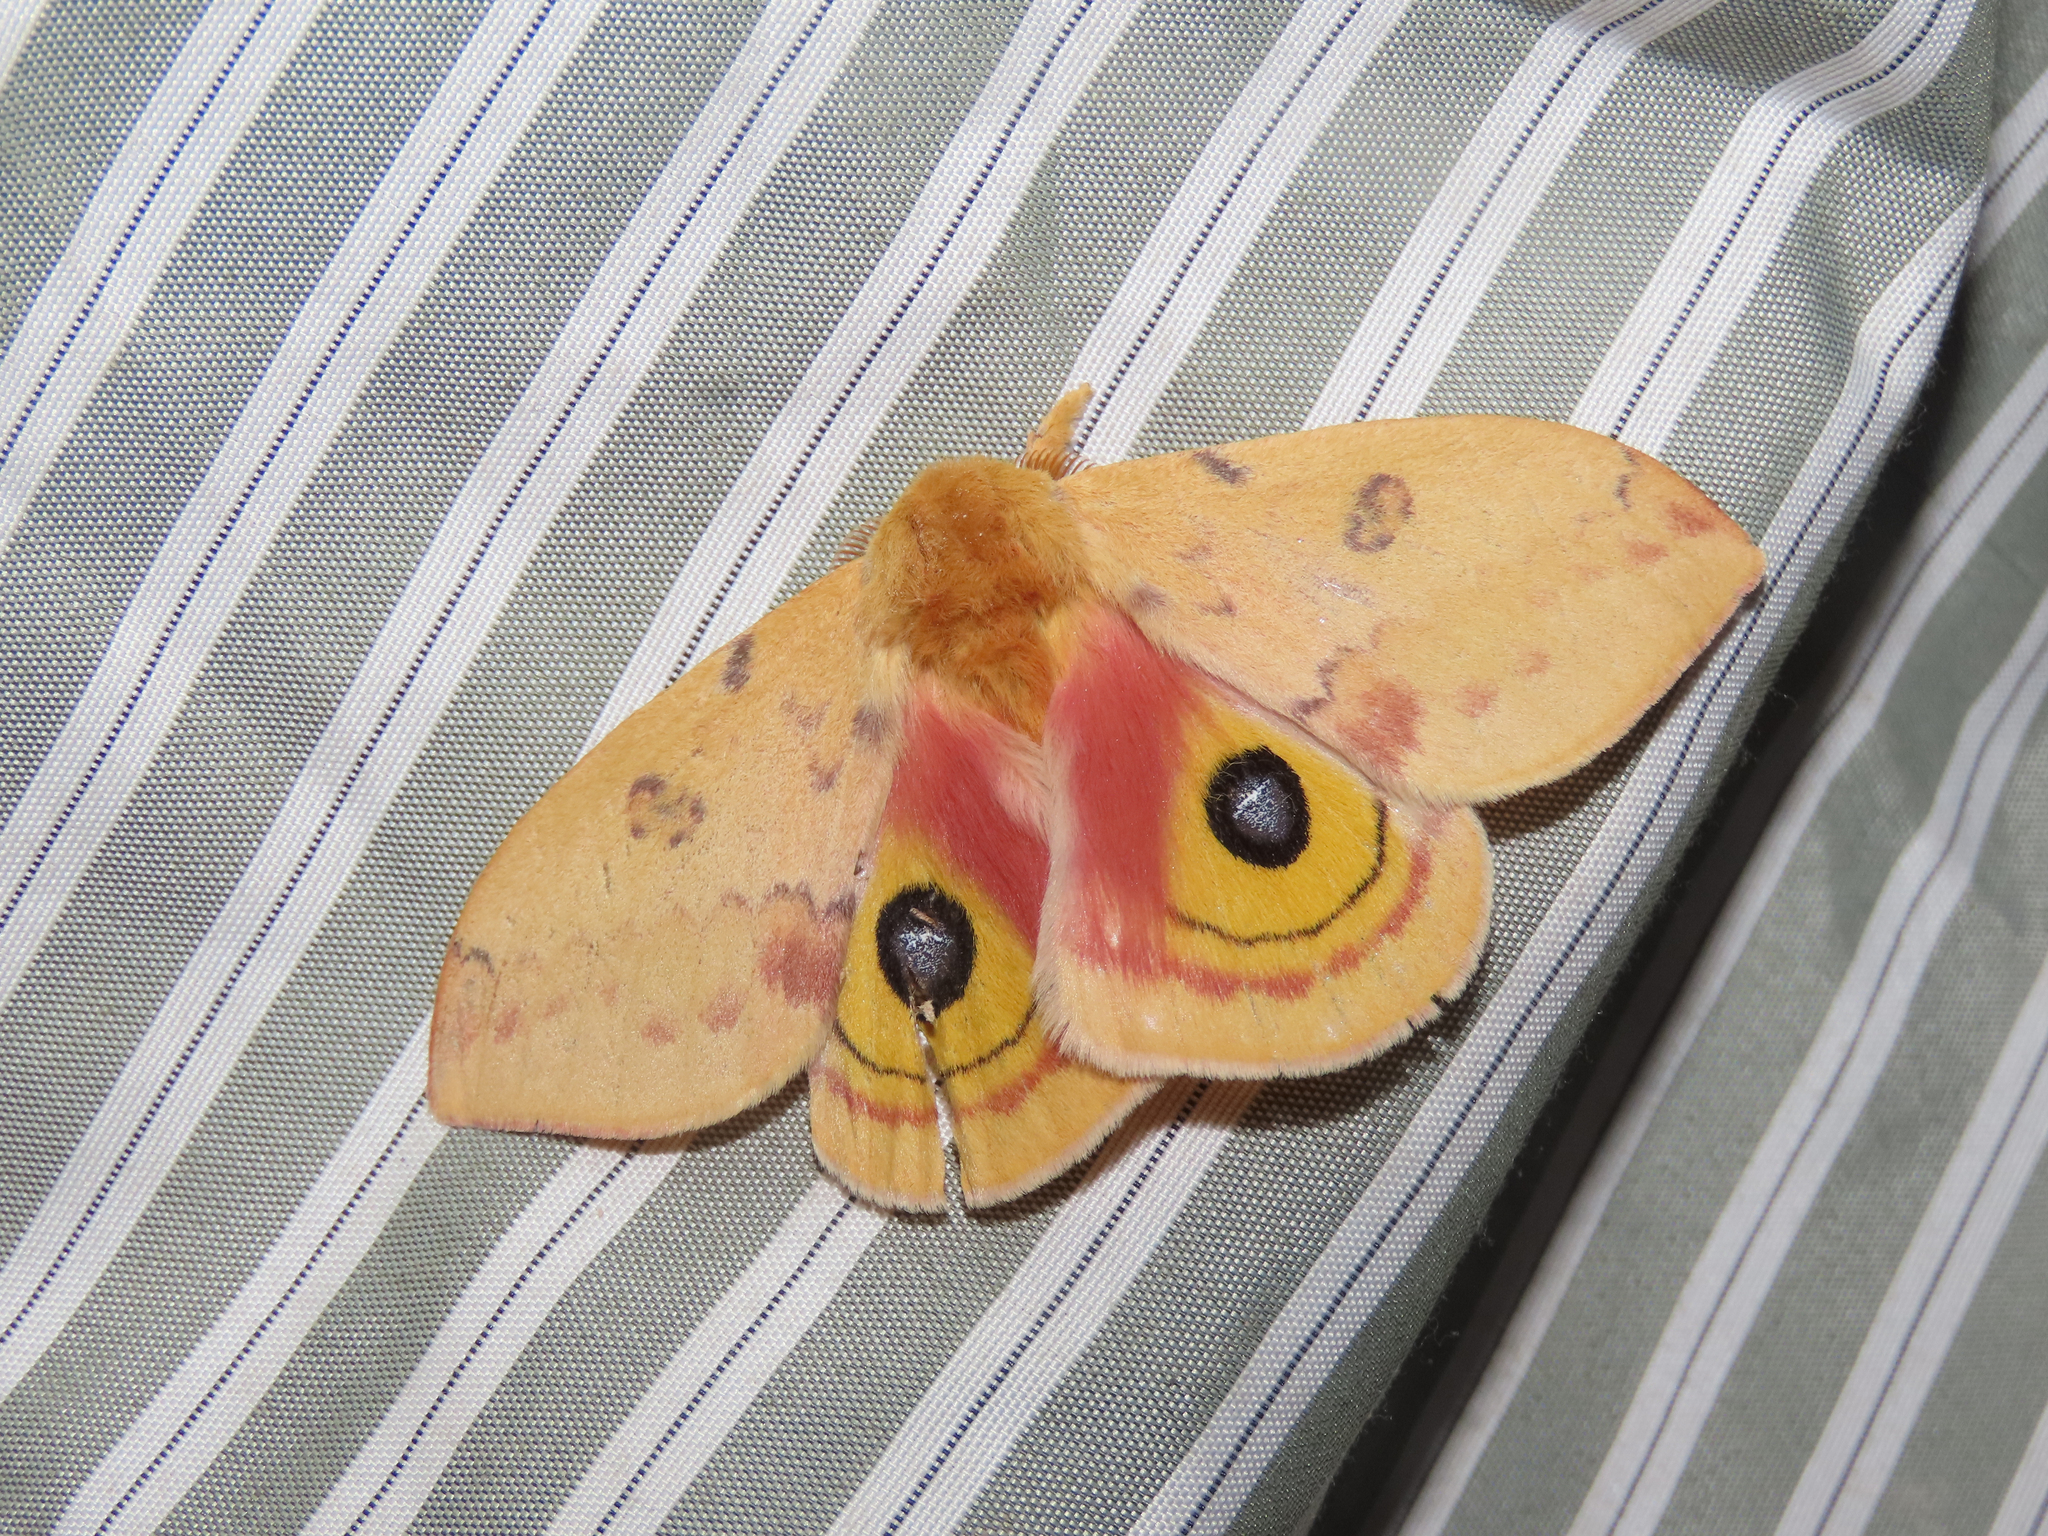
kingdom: Animalia
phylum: Arthropoda
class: Insecta
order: Lepidoptera
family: Saturniidae
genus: Automeris
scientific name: Automeris io
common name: Io moth
